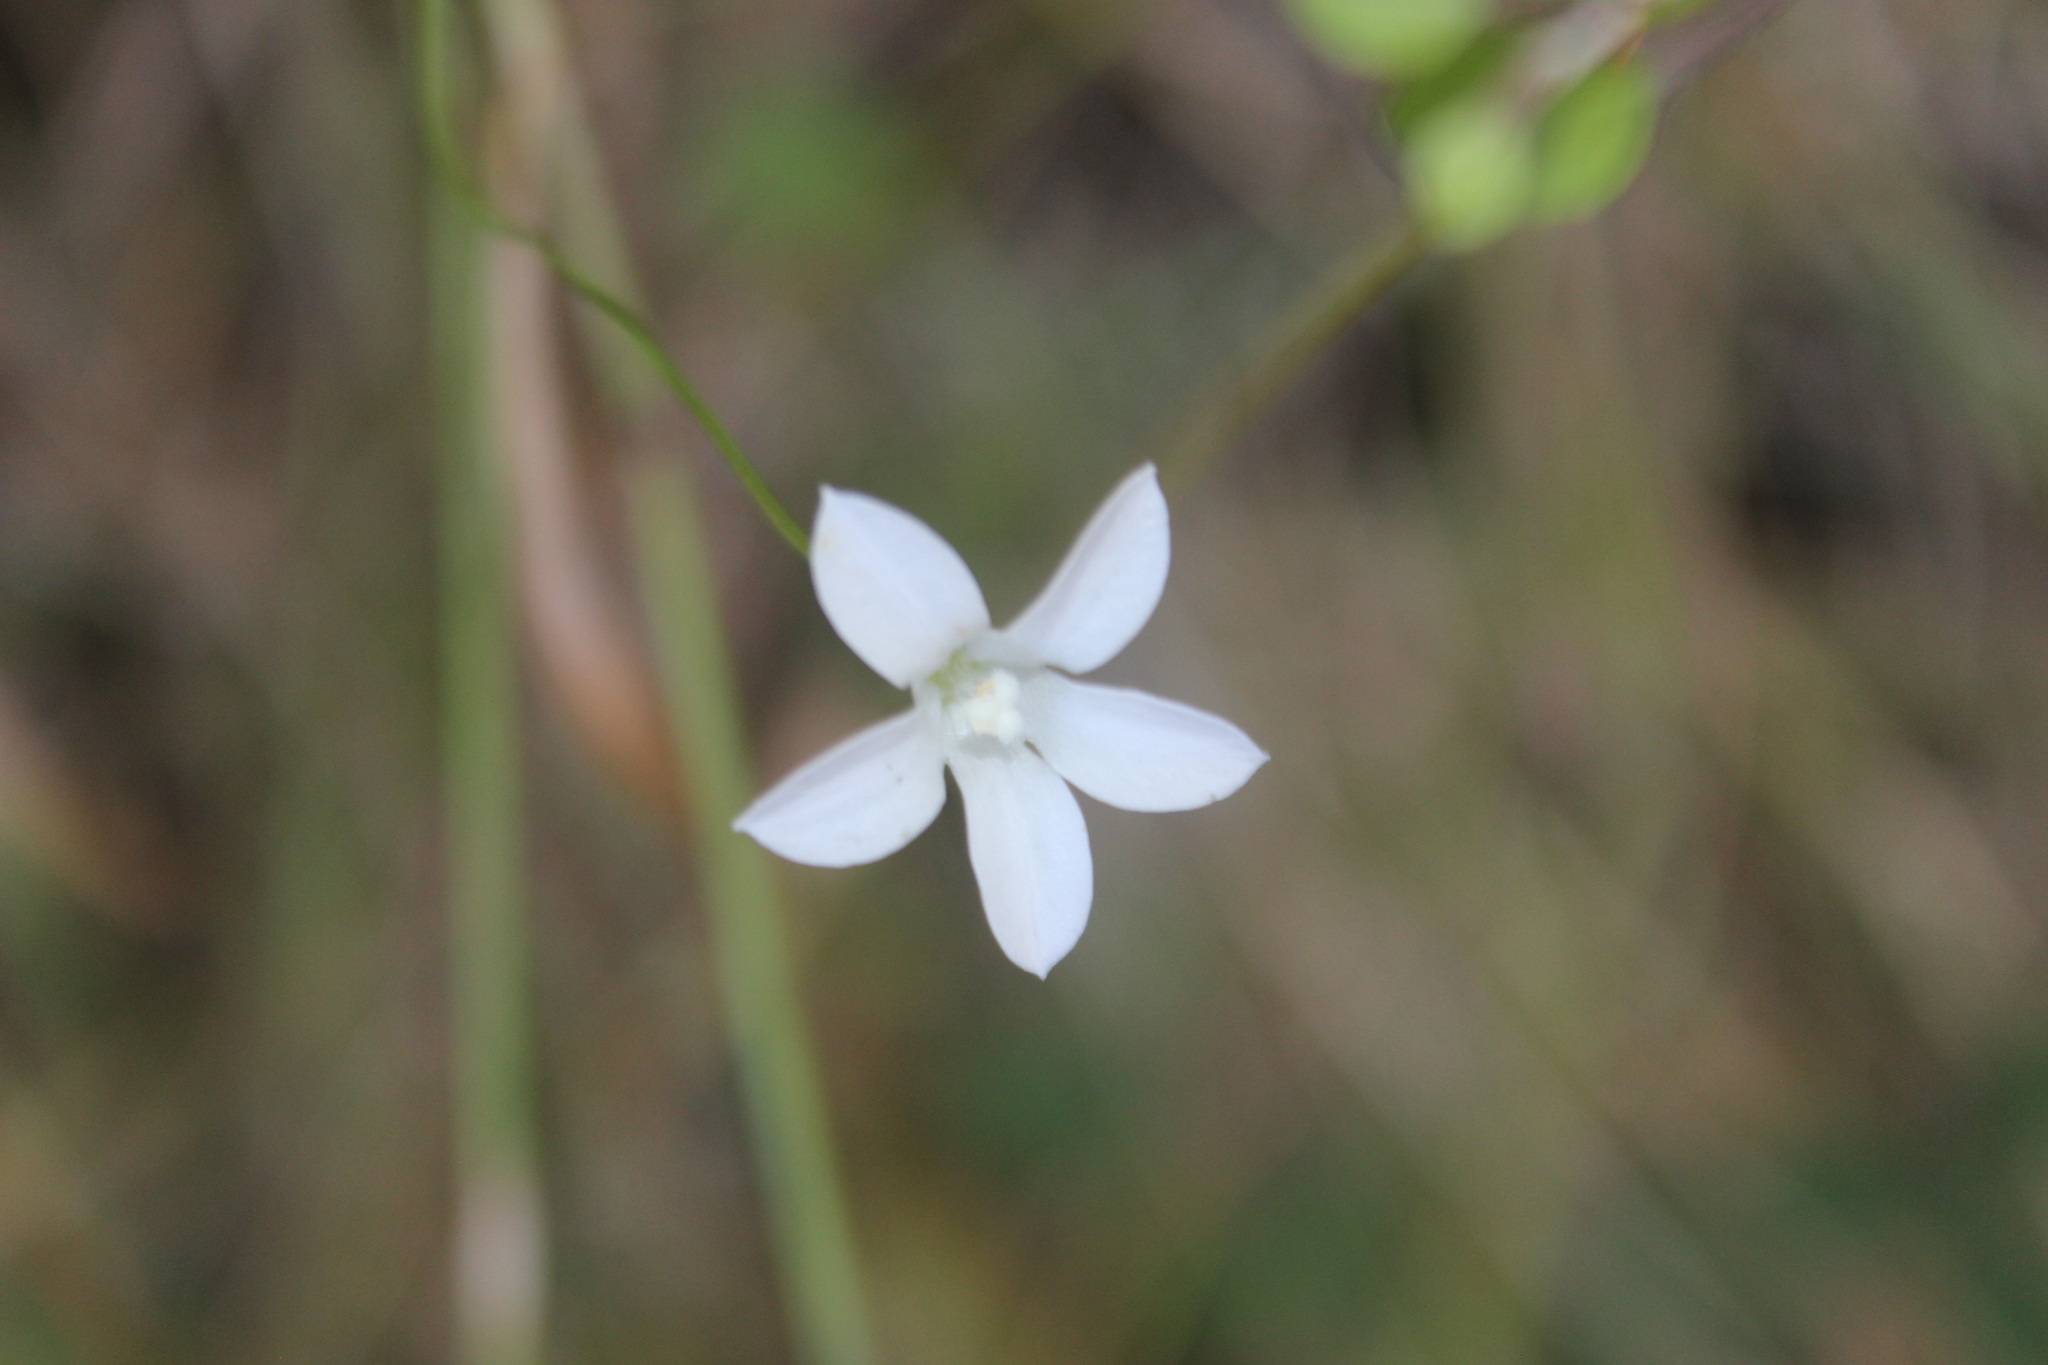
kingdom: Plantae
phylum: Tracheophyta
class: Magnoliopsida
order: Asterales
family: Campanulaceae
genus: Wahlenbergia
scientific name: Wahlenbergia violacea
